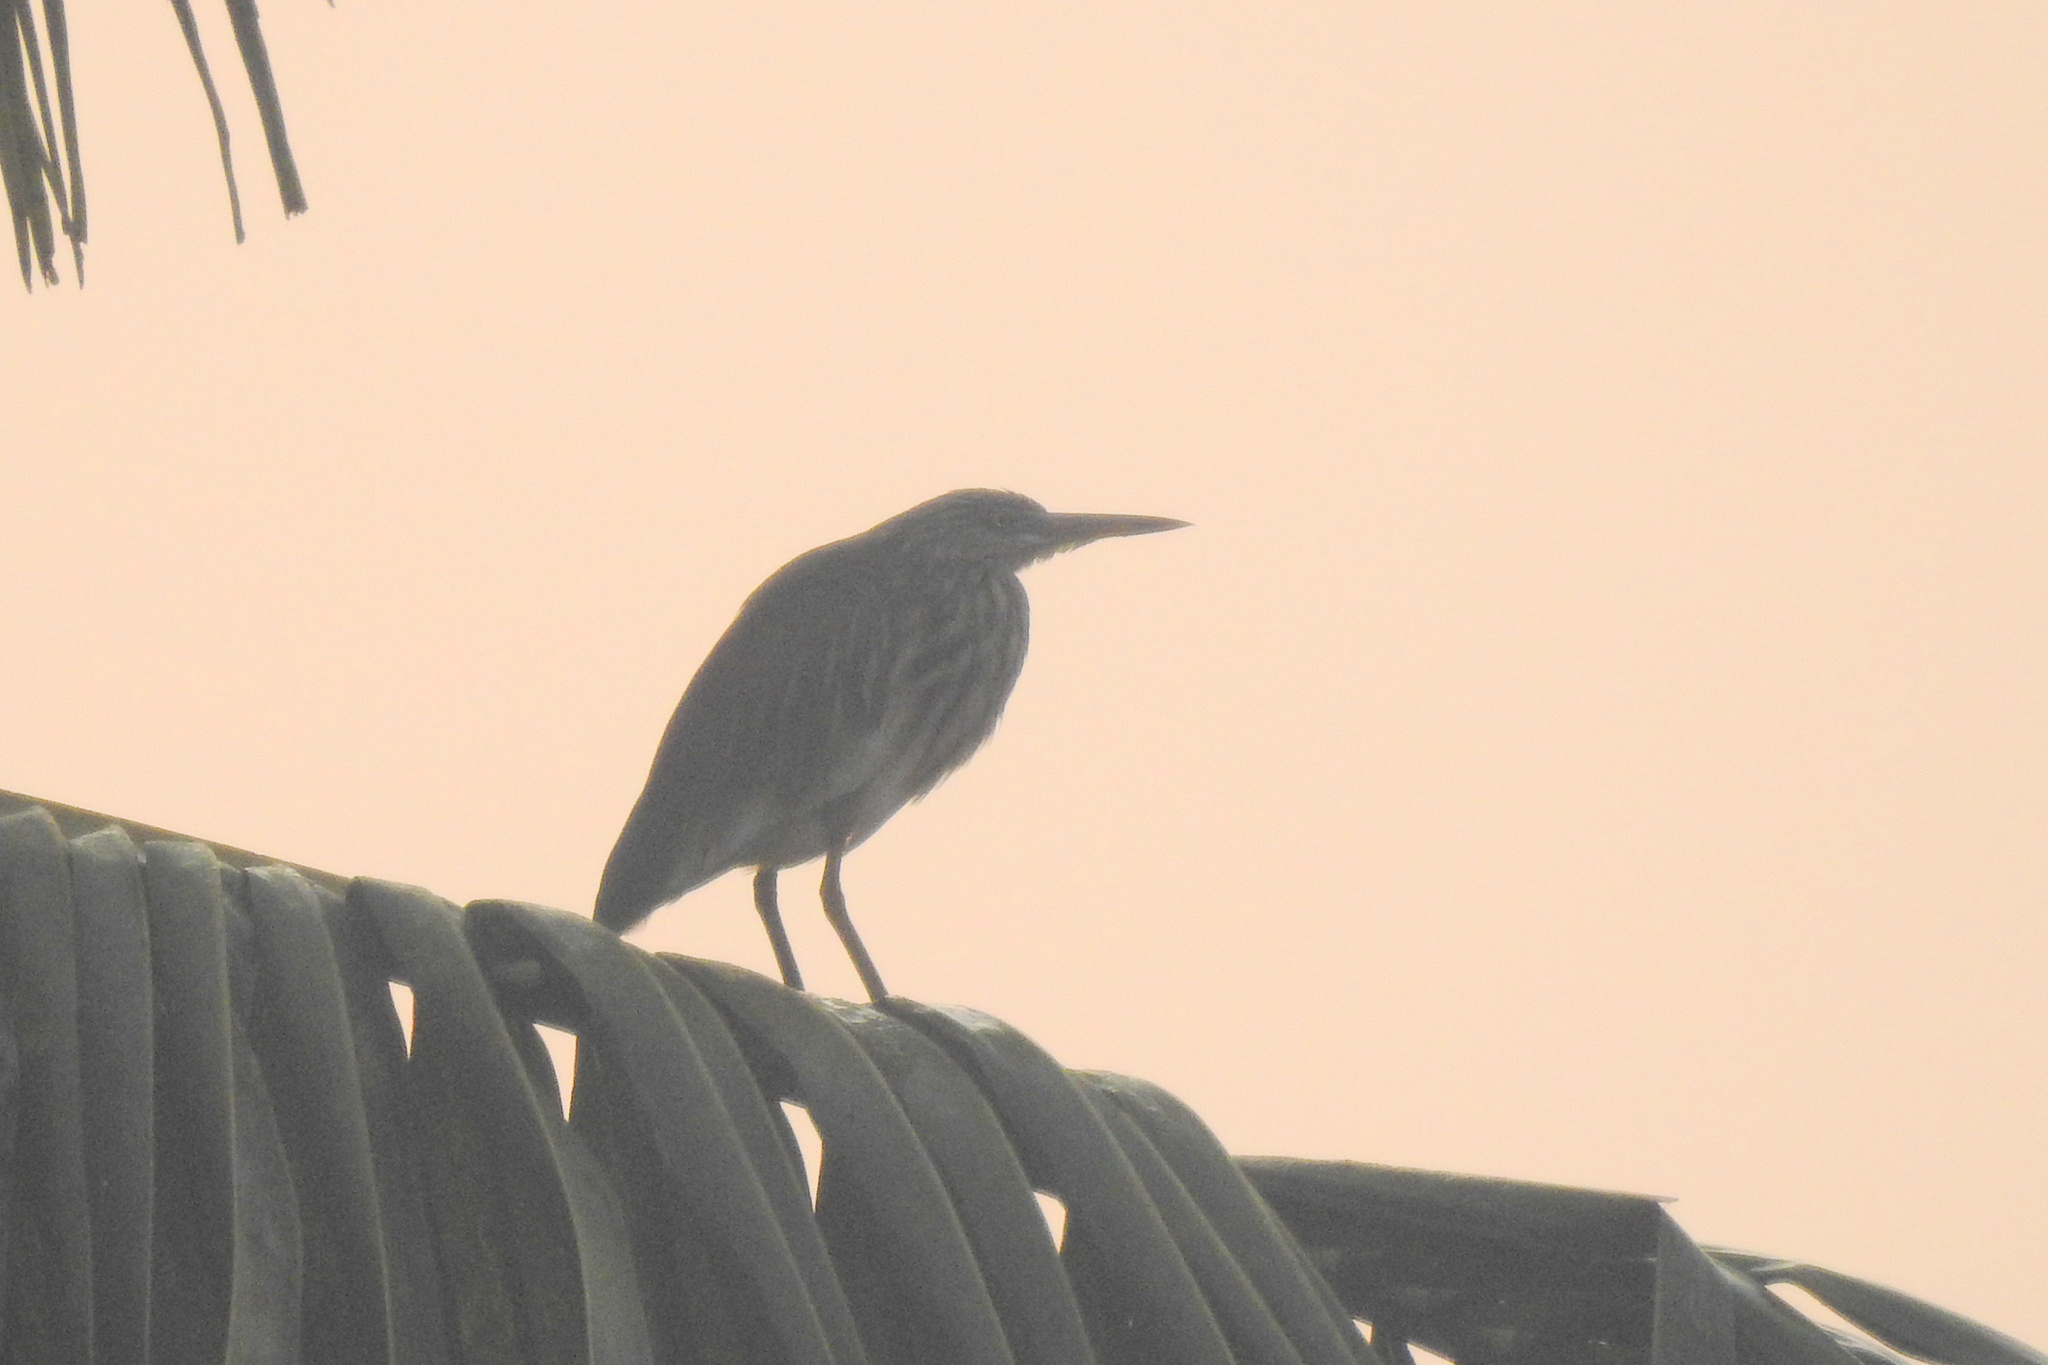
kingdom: Animalia
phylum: Chordata
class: Aves
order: Pelecaniformes
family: Ardeidae
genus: Ardeola
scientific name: Ardeola grayii
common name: Indian pond heron
